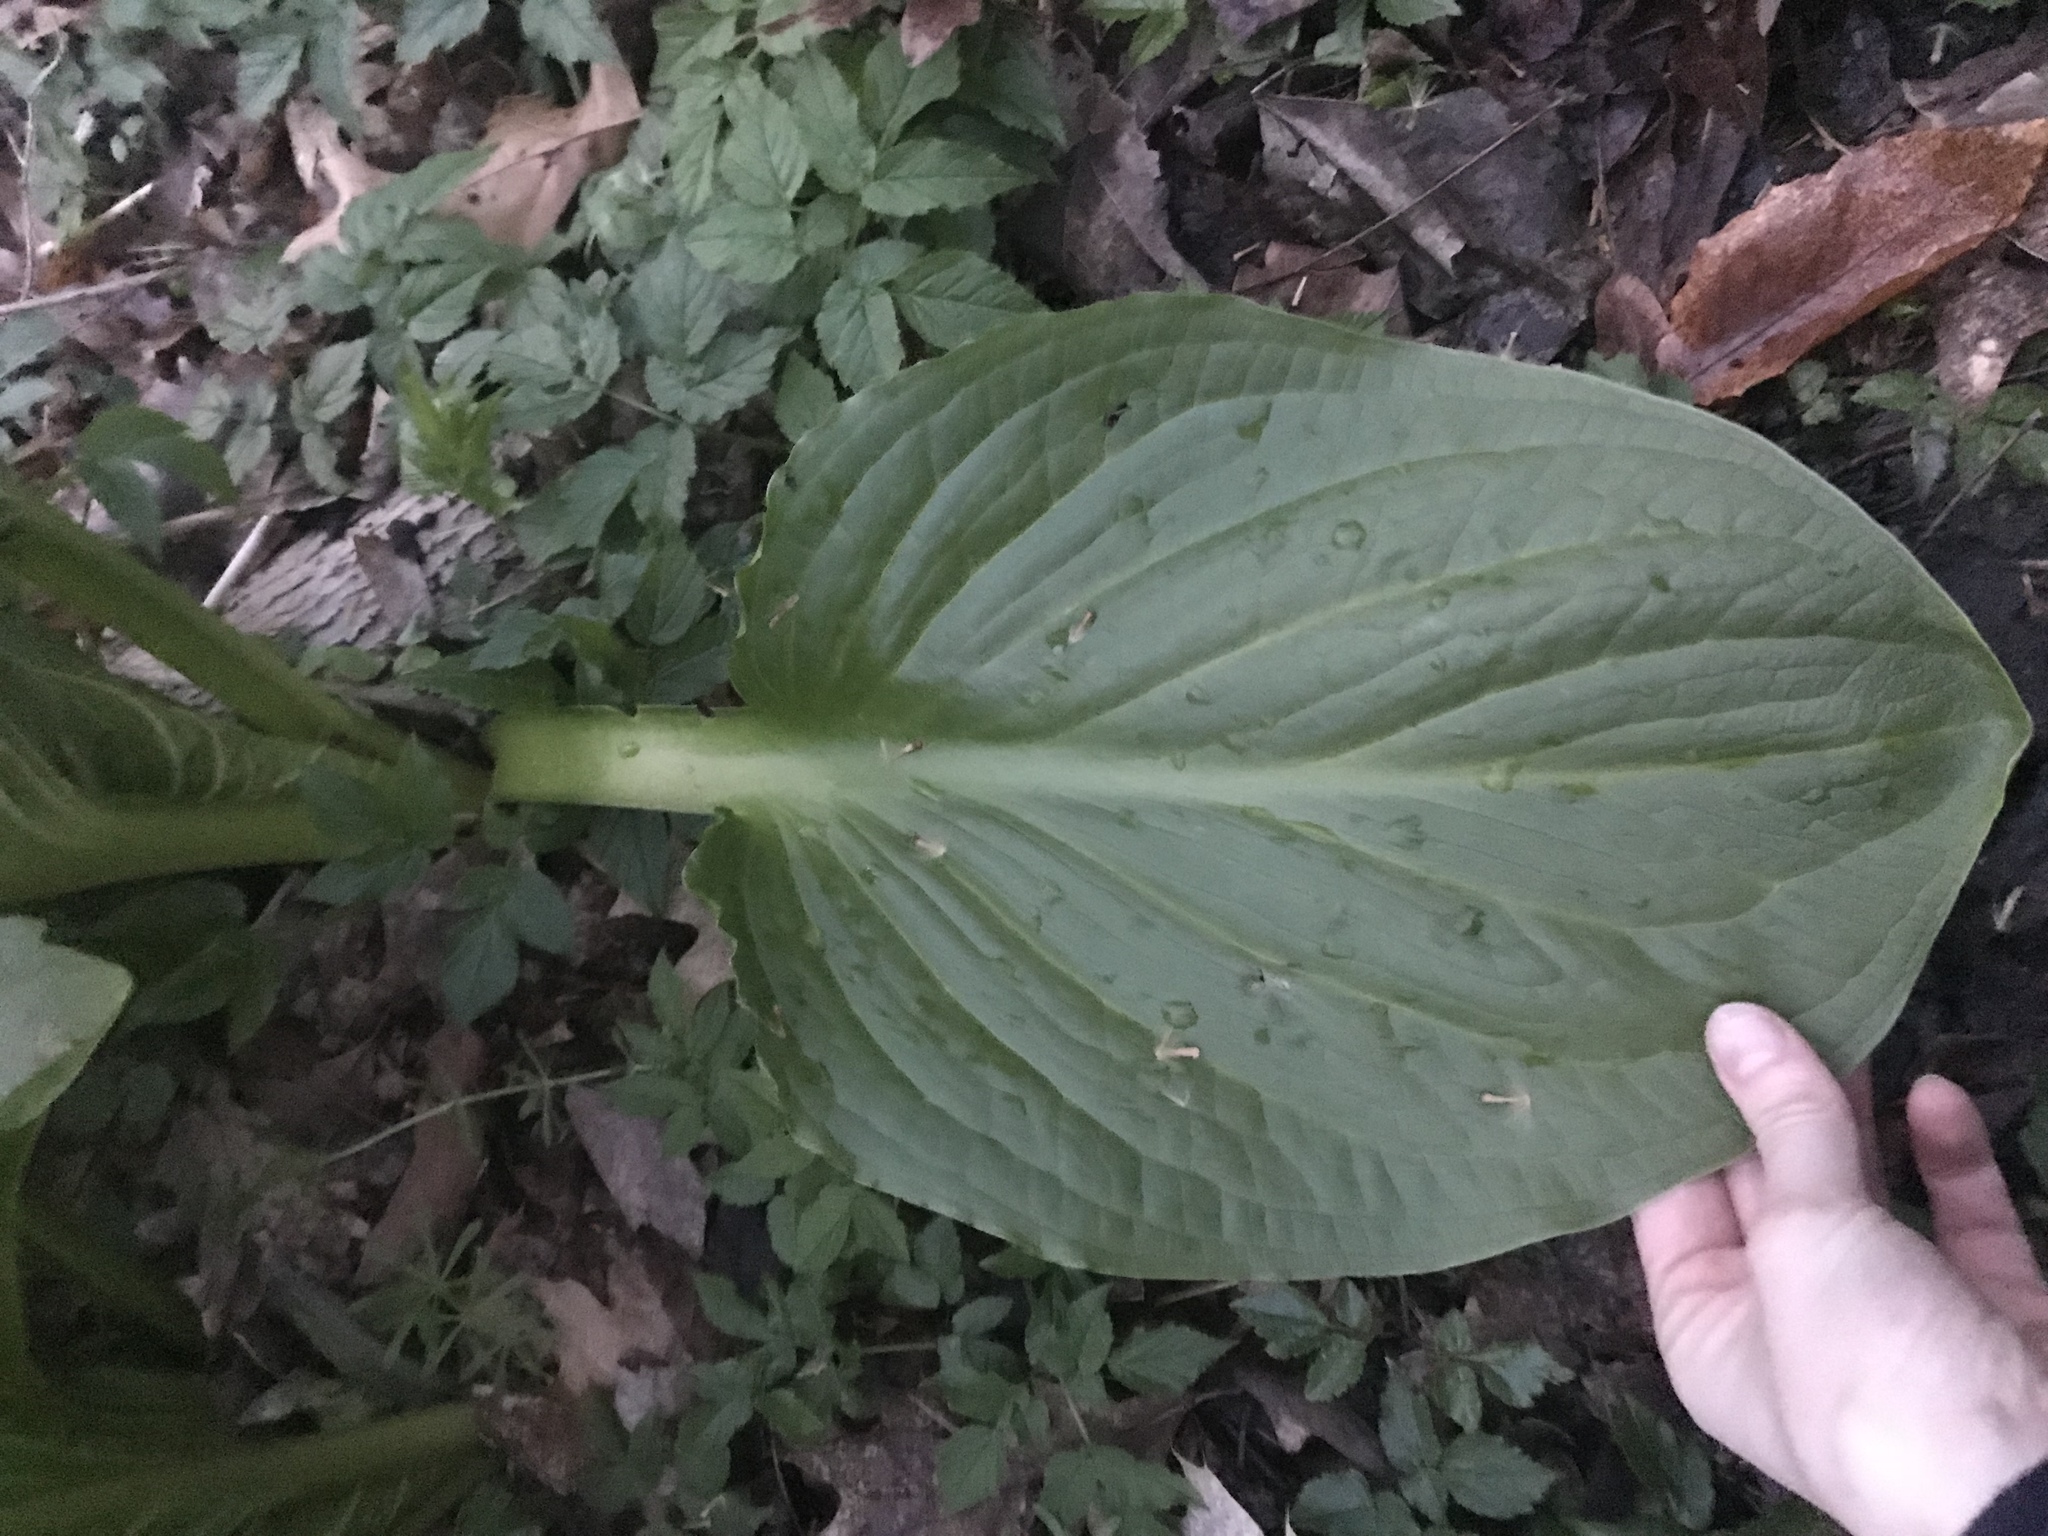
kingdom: Plantae
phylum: Tracheophyta
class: Liliopsida
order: Alismatales
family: Araceae
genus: Symplocarpus
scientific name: Symplocarpus foetidus
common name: Eastern skunk cabbage
